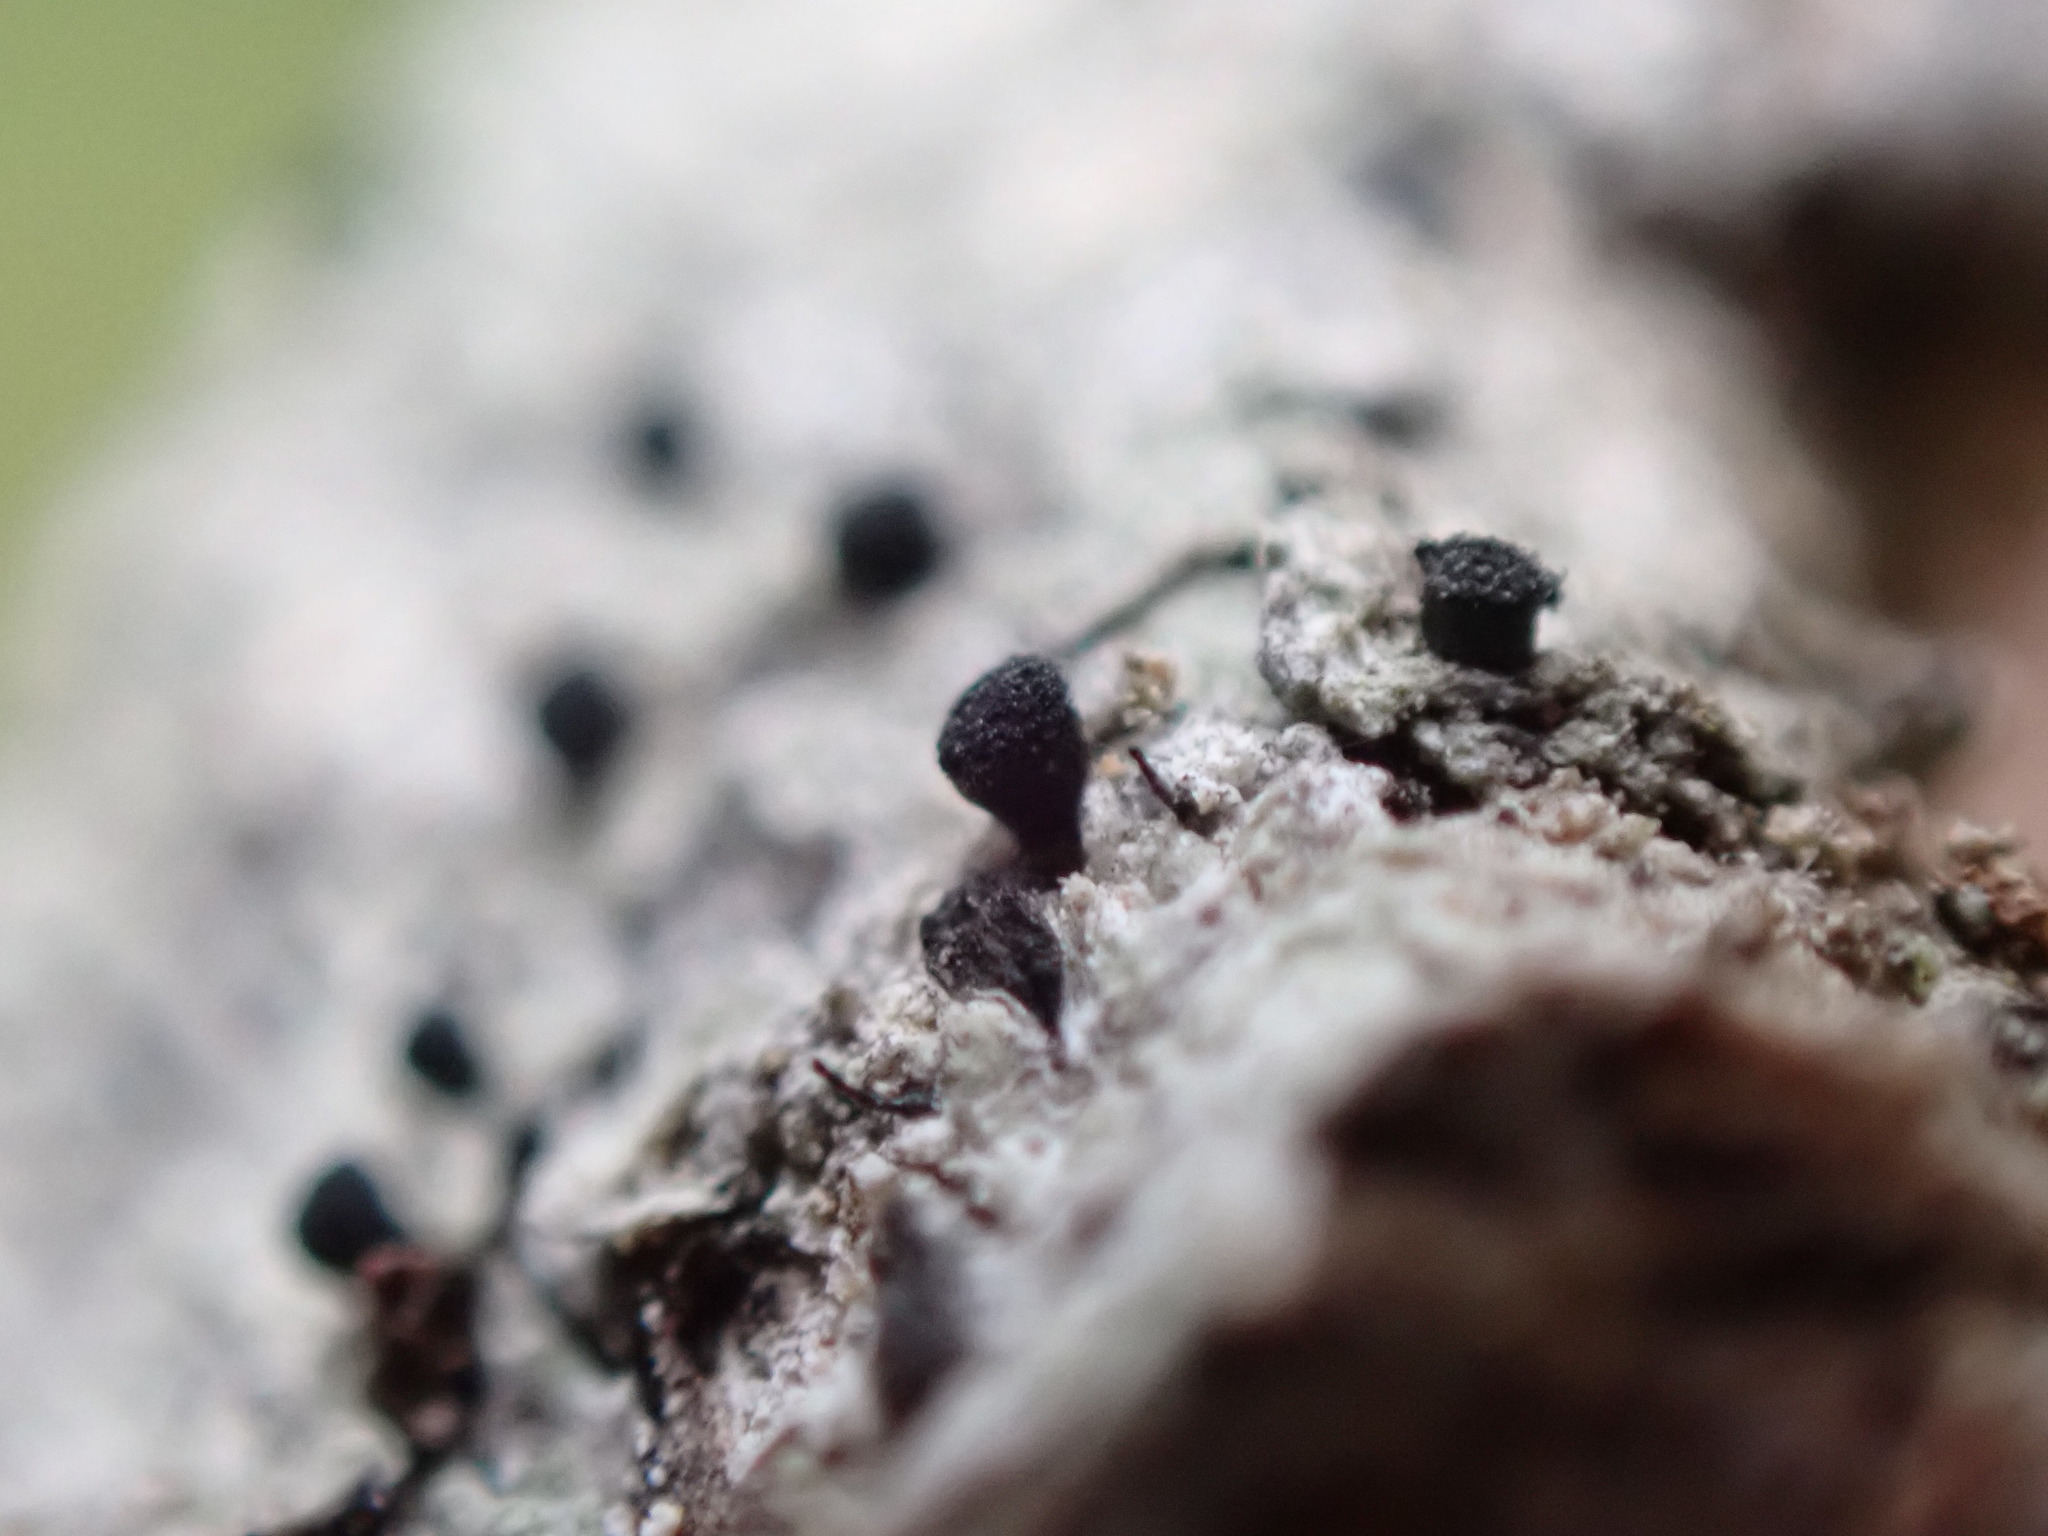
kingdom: Fungi
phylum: Ascomycota
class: Lecanoromycetes
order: Caliciales
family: Caliciaceae
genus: Acolium
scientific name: Acolium inquinans
